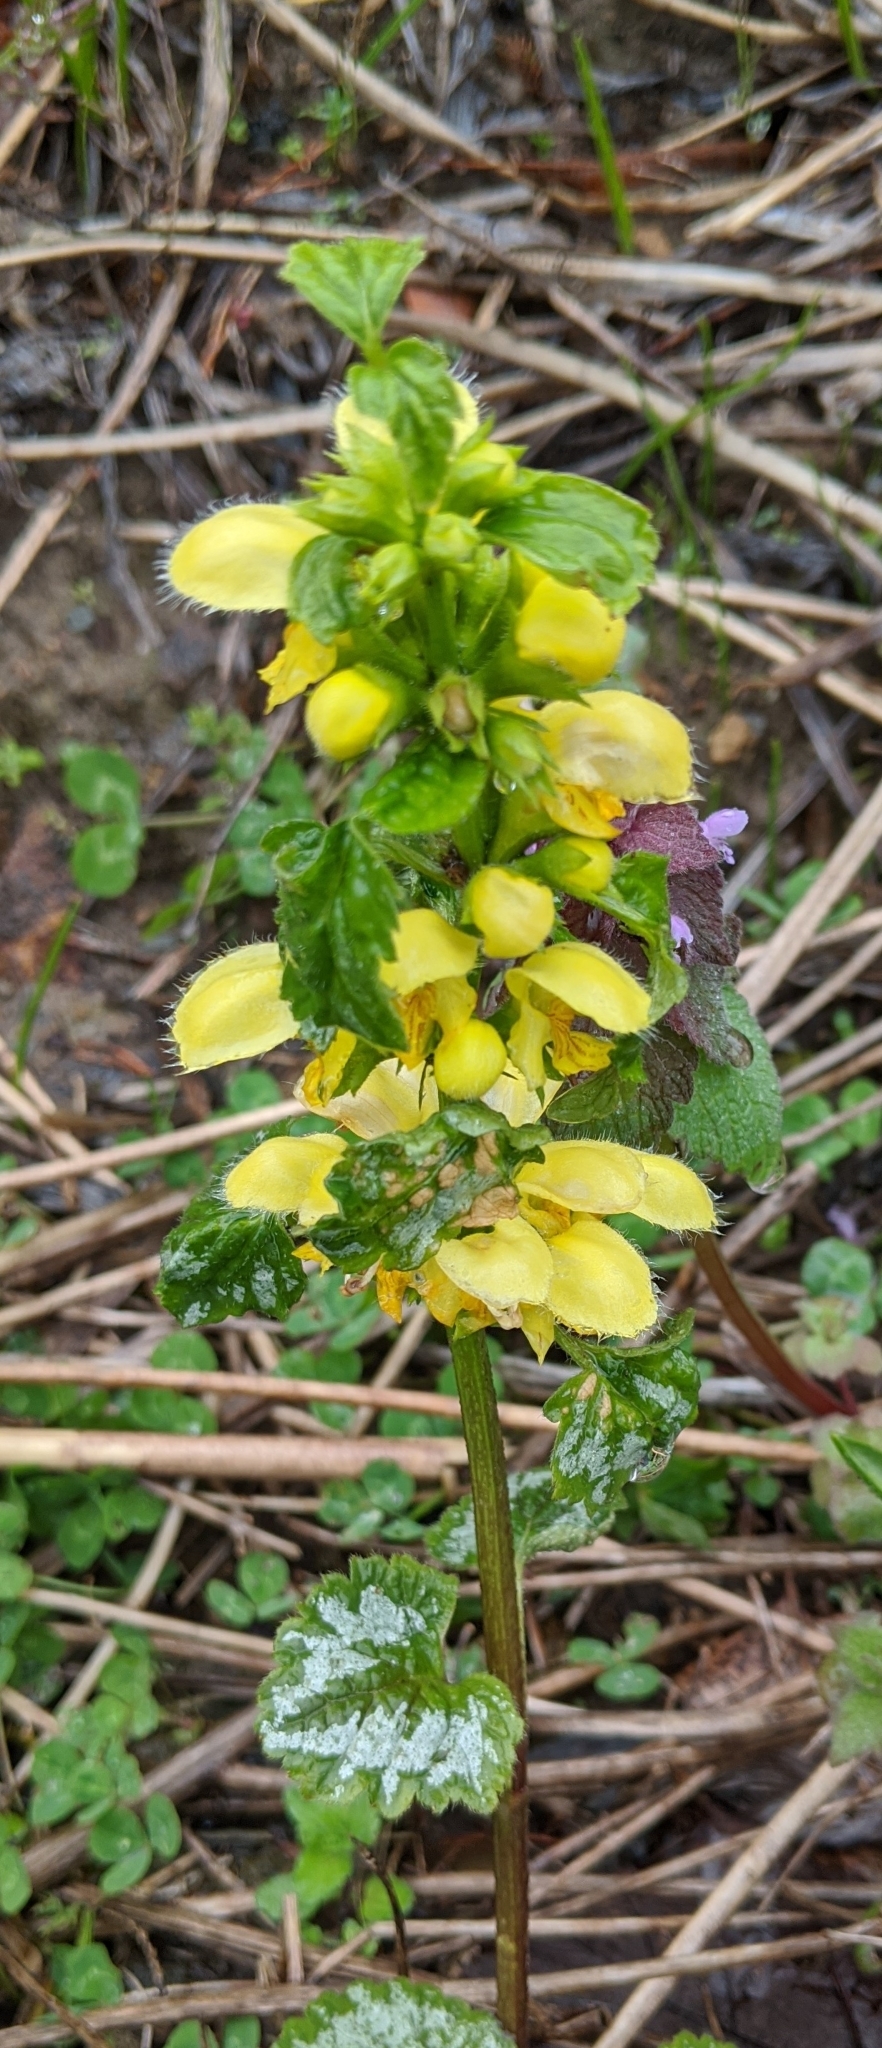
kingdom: Plantae
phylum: Tracheophyta
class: Magnoliopsida
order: Lamiales
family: Lamiaceae
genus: Lamium
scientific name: Lamium galeobdolon
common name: Yellow archangel
